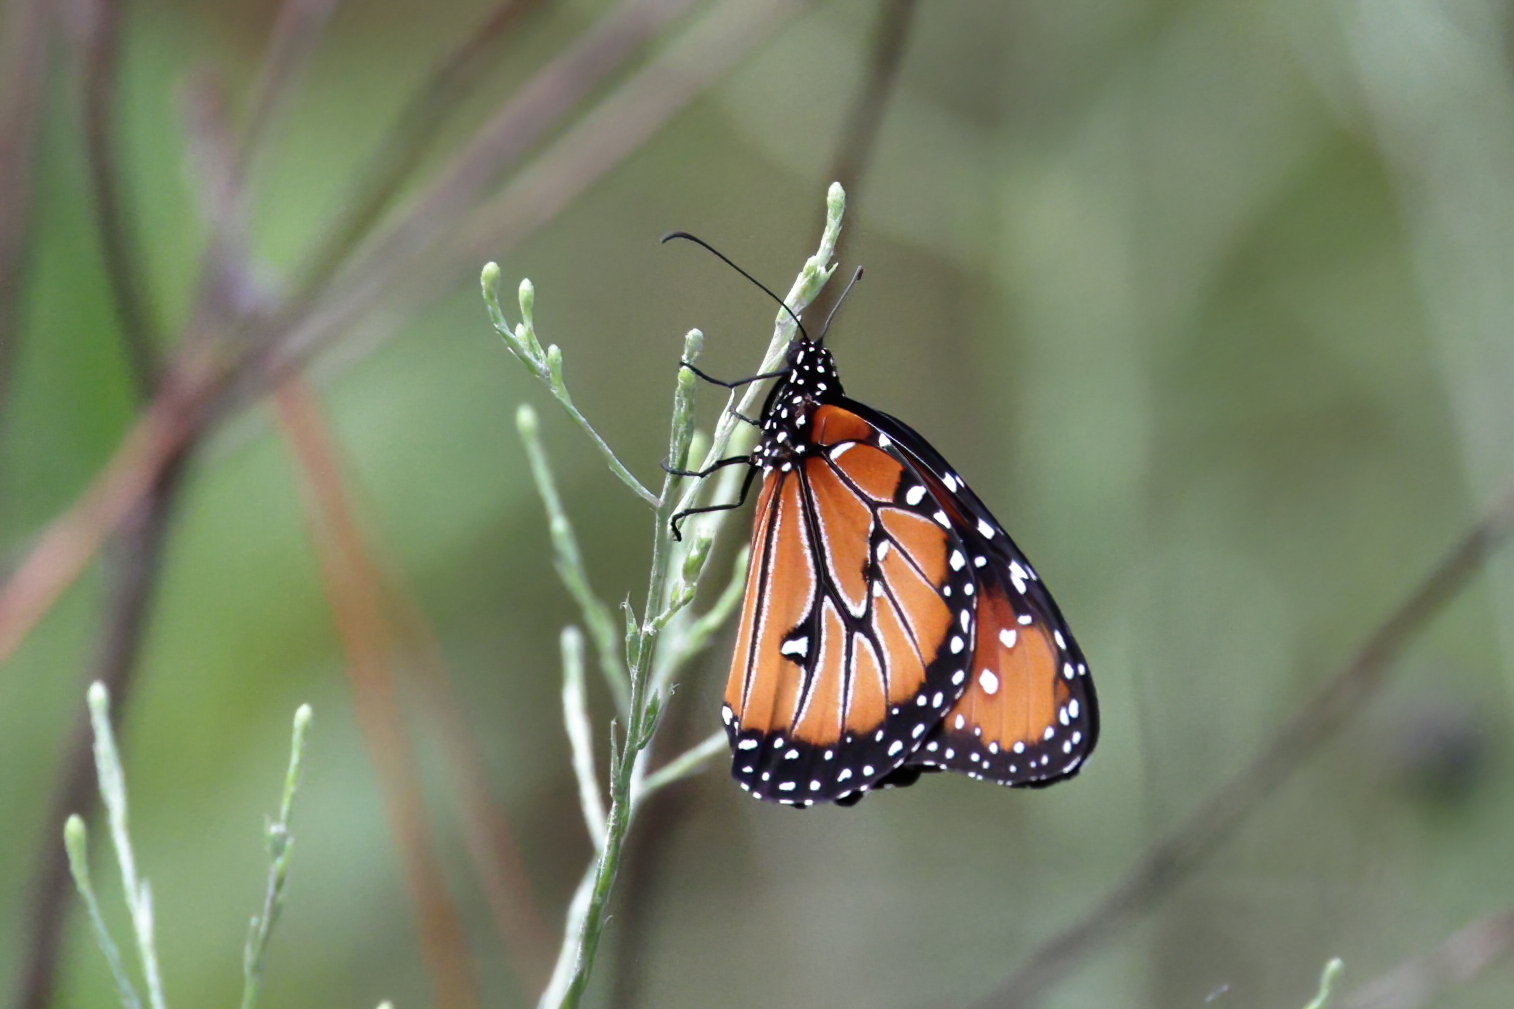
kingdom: Animalia
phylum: Arthropoda
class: Insecta
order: Lepidoptera
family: Nymphalidae
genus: Danaus
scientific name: Danaus gilippus
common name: Queen
